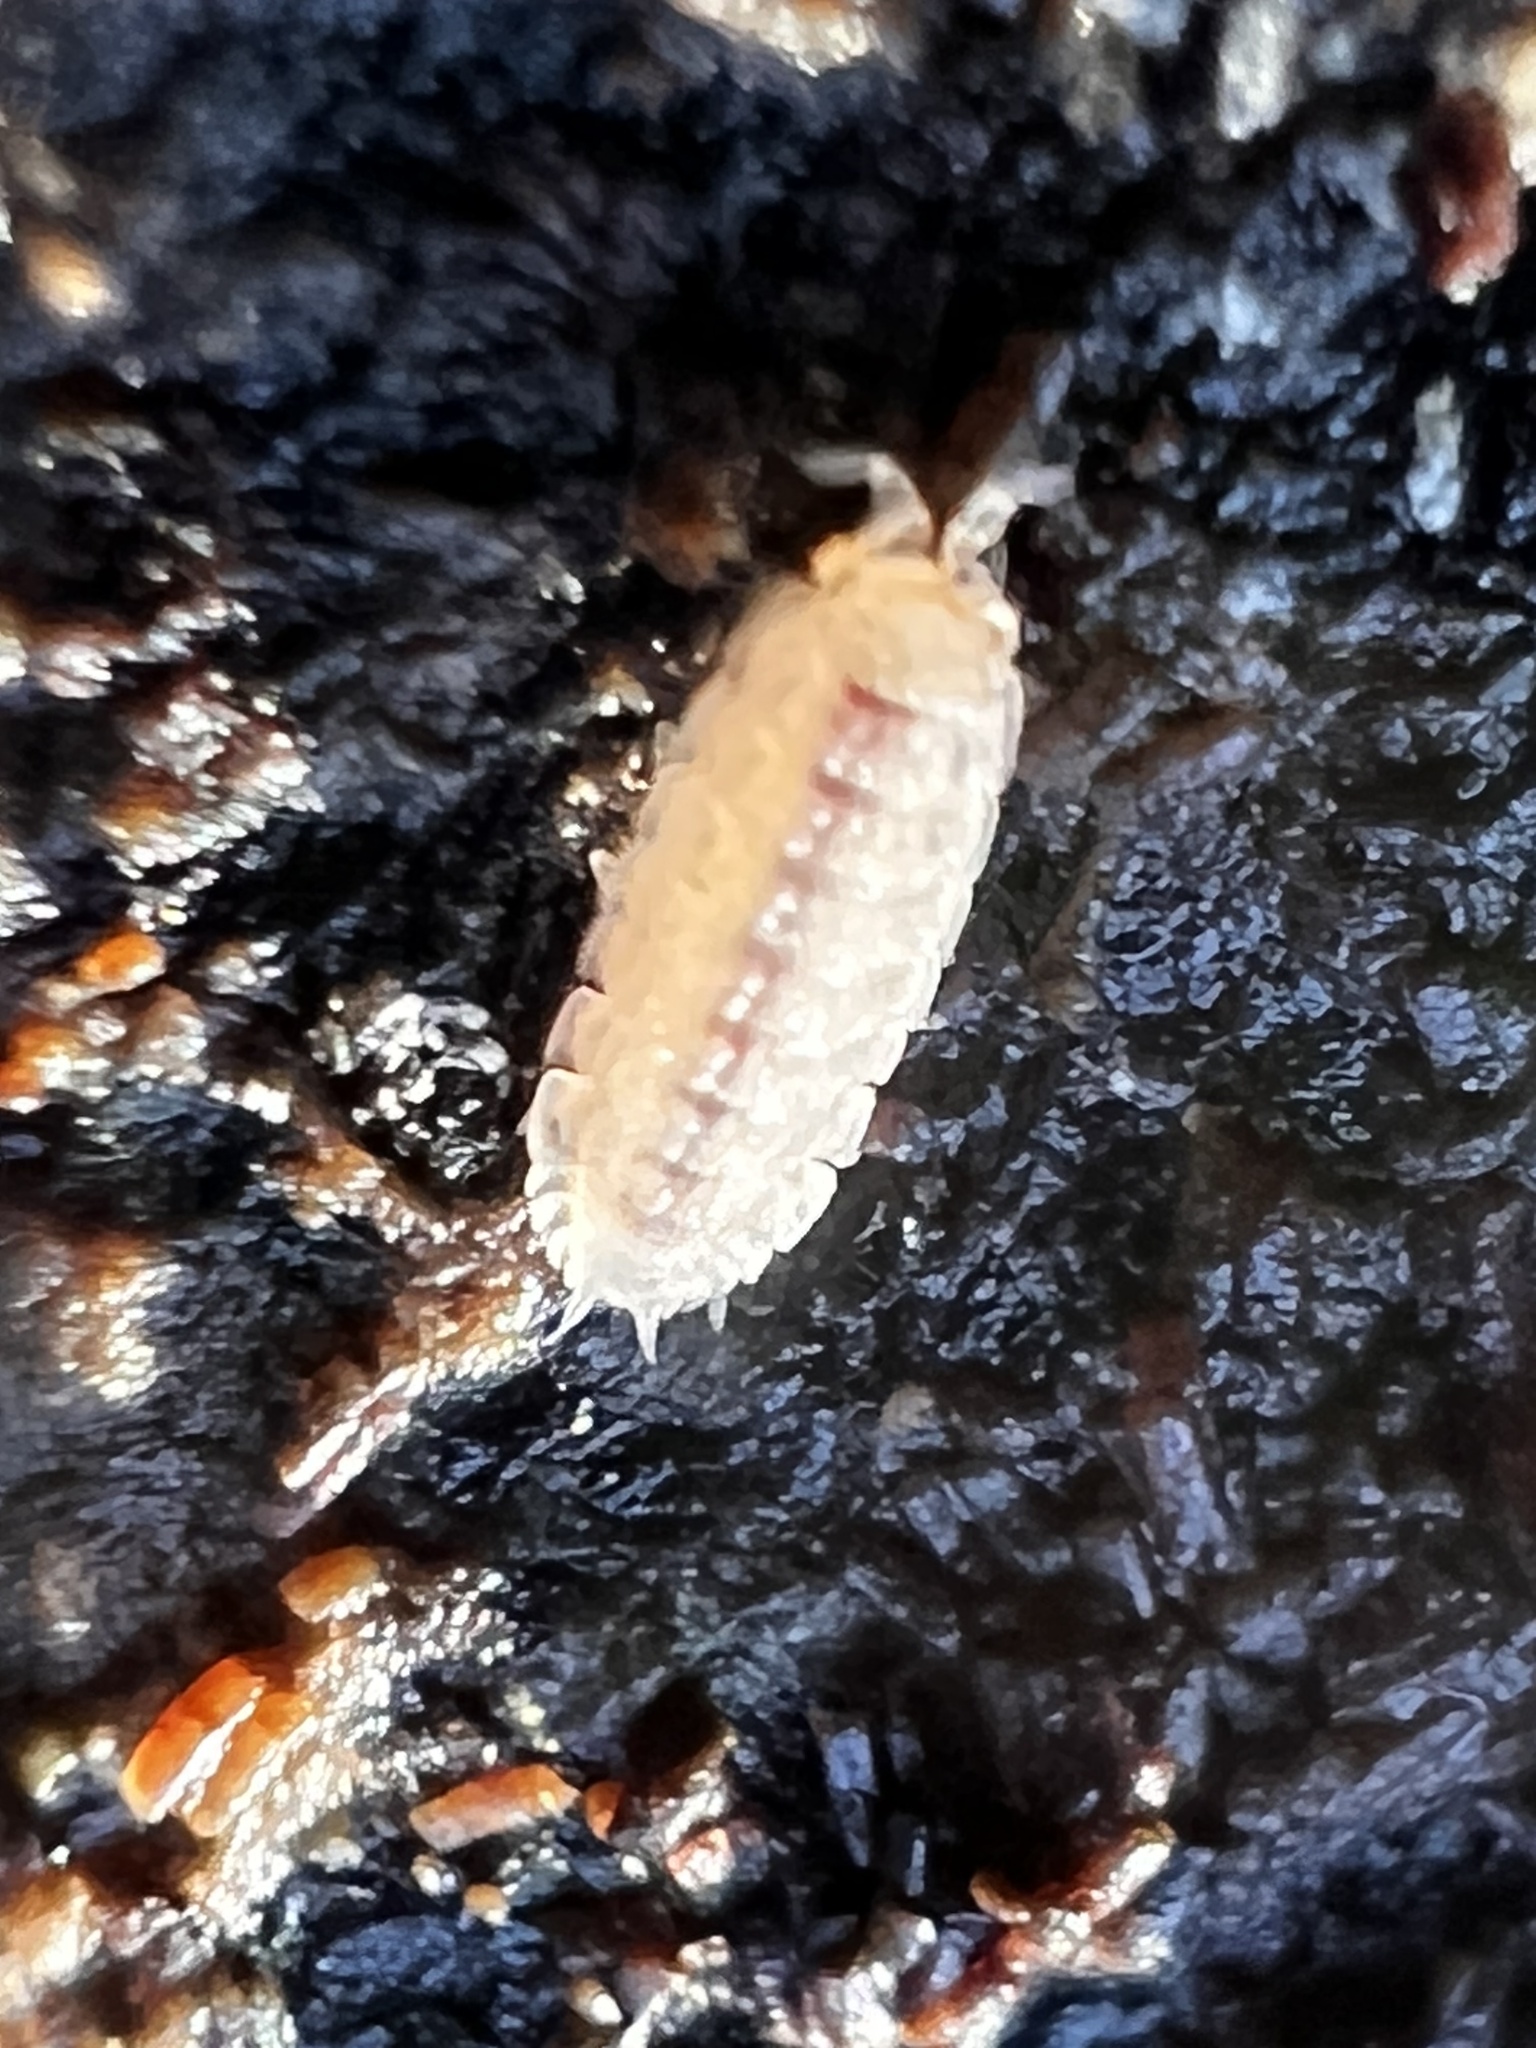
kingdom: Animalia
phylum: Arthropoda
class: Malacostraca
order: Isopoda
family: Trichoniscidae
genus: Haplophthalmus
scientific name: Haplophthalmus danicus
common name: Pillbug
